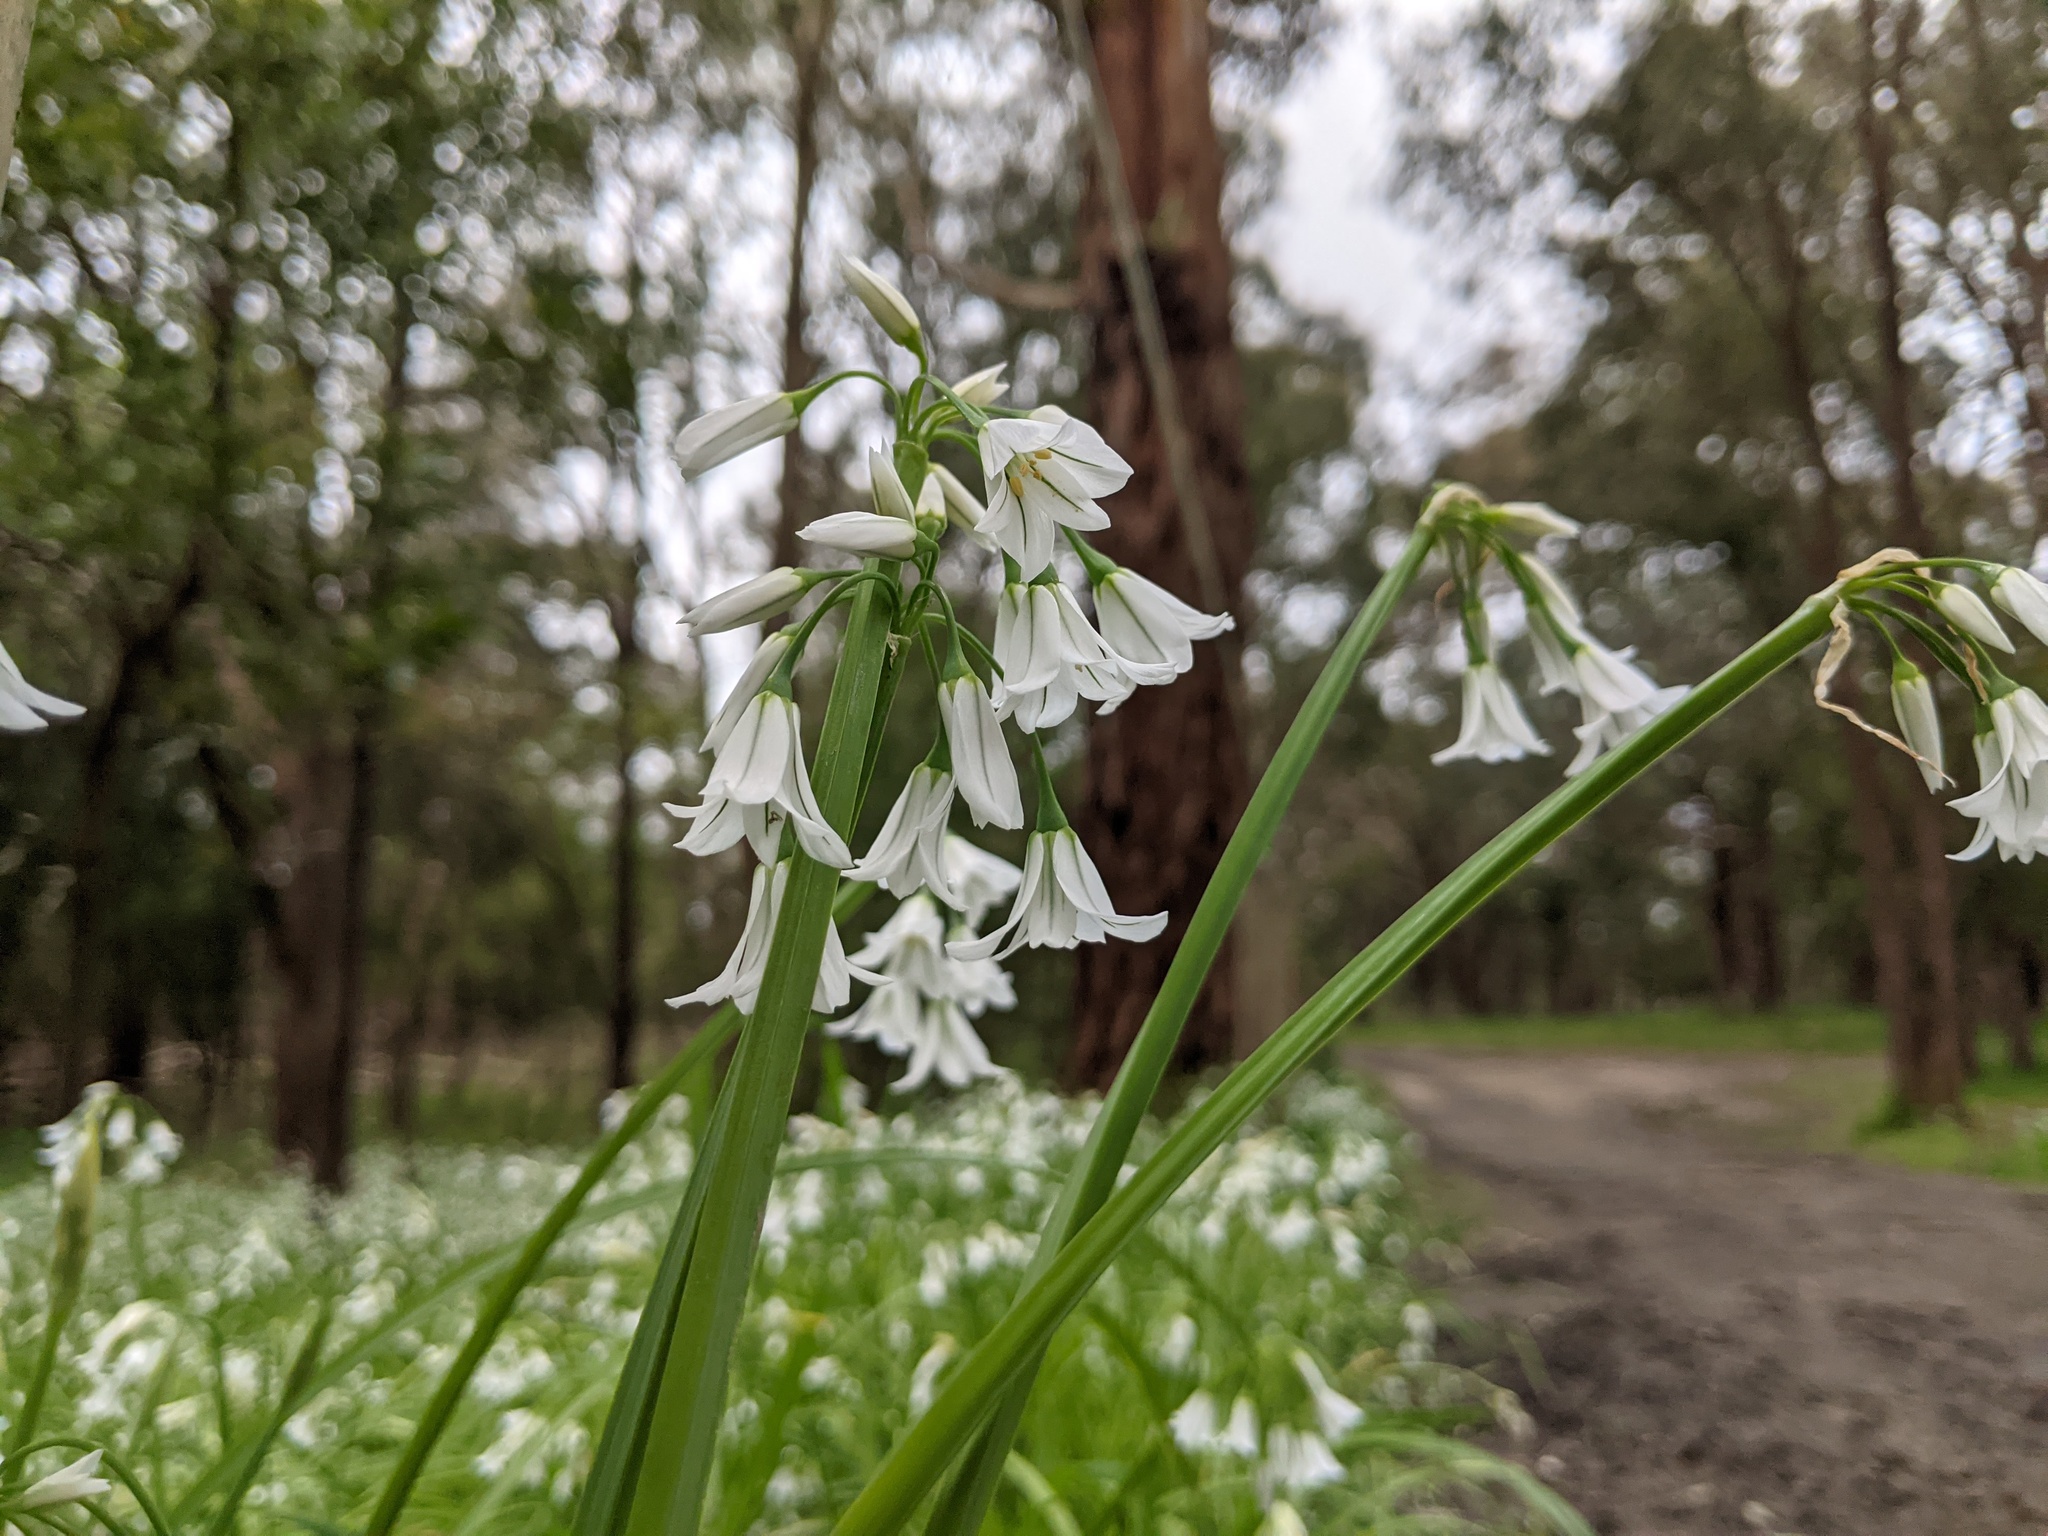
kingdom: Plantae
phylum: Tracheophyta
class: Liliopsida
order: Asparagales
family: Amaryllidaceae
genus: Allium
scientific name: Allium triquetrum
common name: Three-cornered garlic
